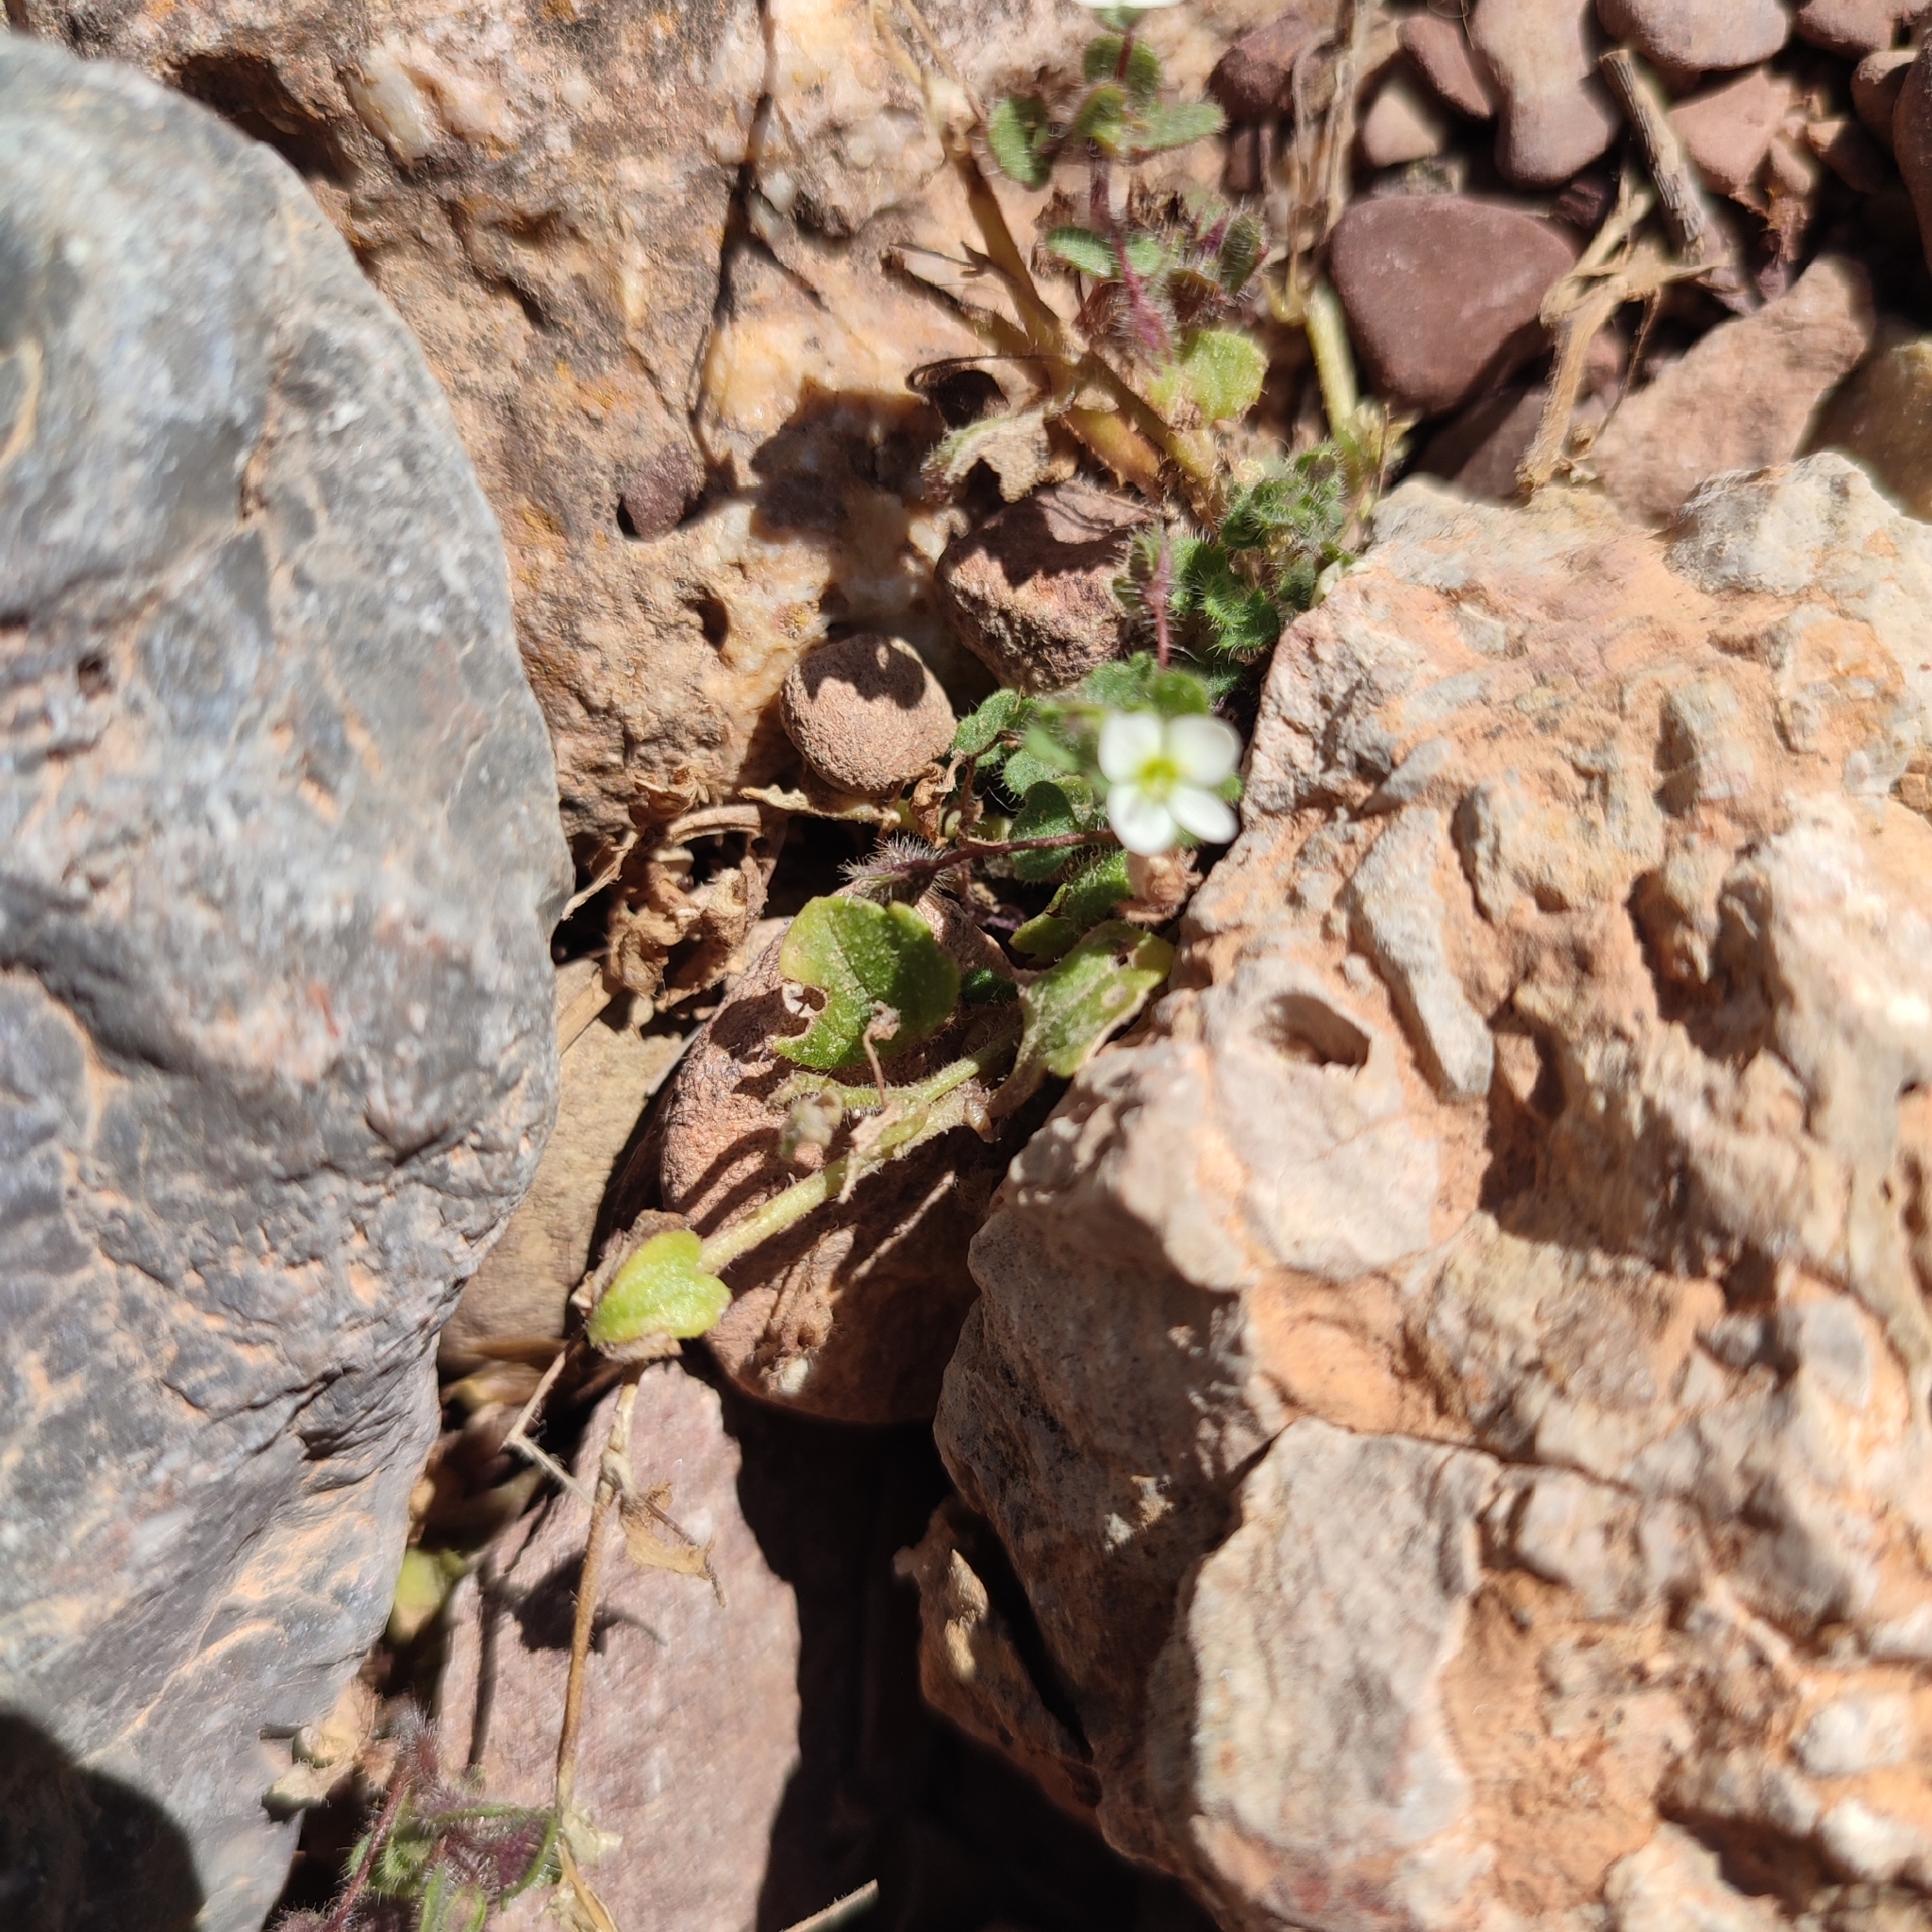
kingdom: Plantae
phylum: Tracheophyta
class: Magnoliopsida
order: Lamiales
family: Plantaginaceae
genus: Veronica
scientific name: Veronica cymbalaria
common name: Pale speedwell
